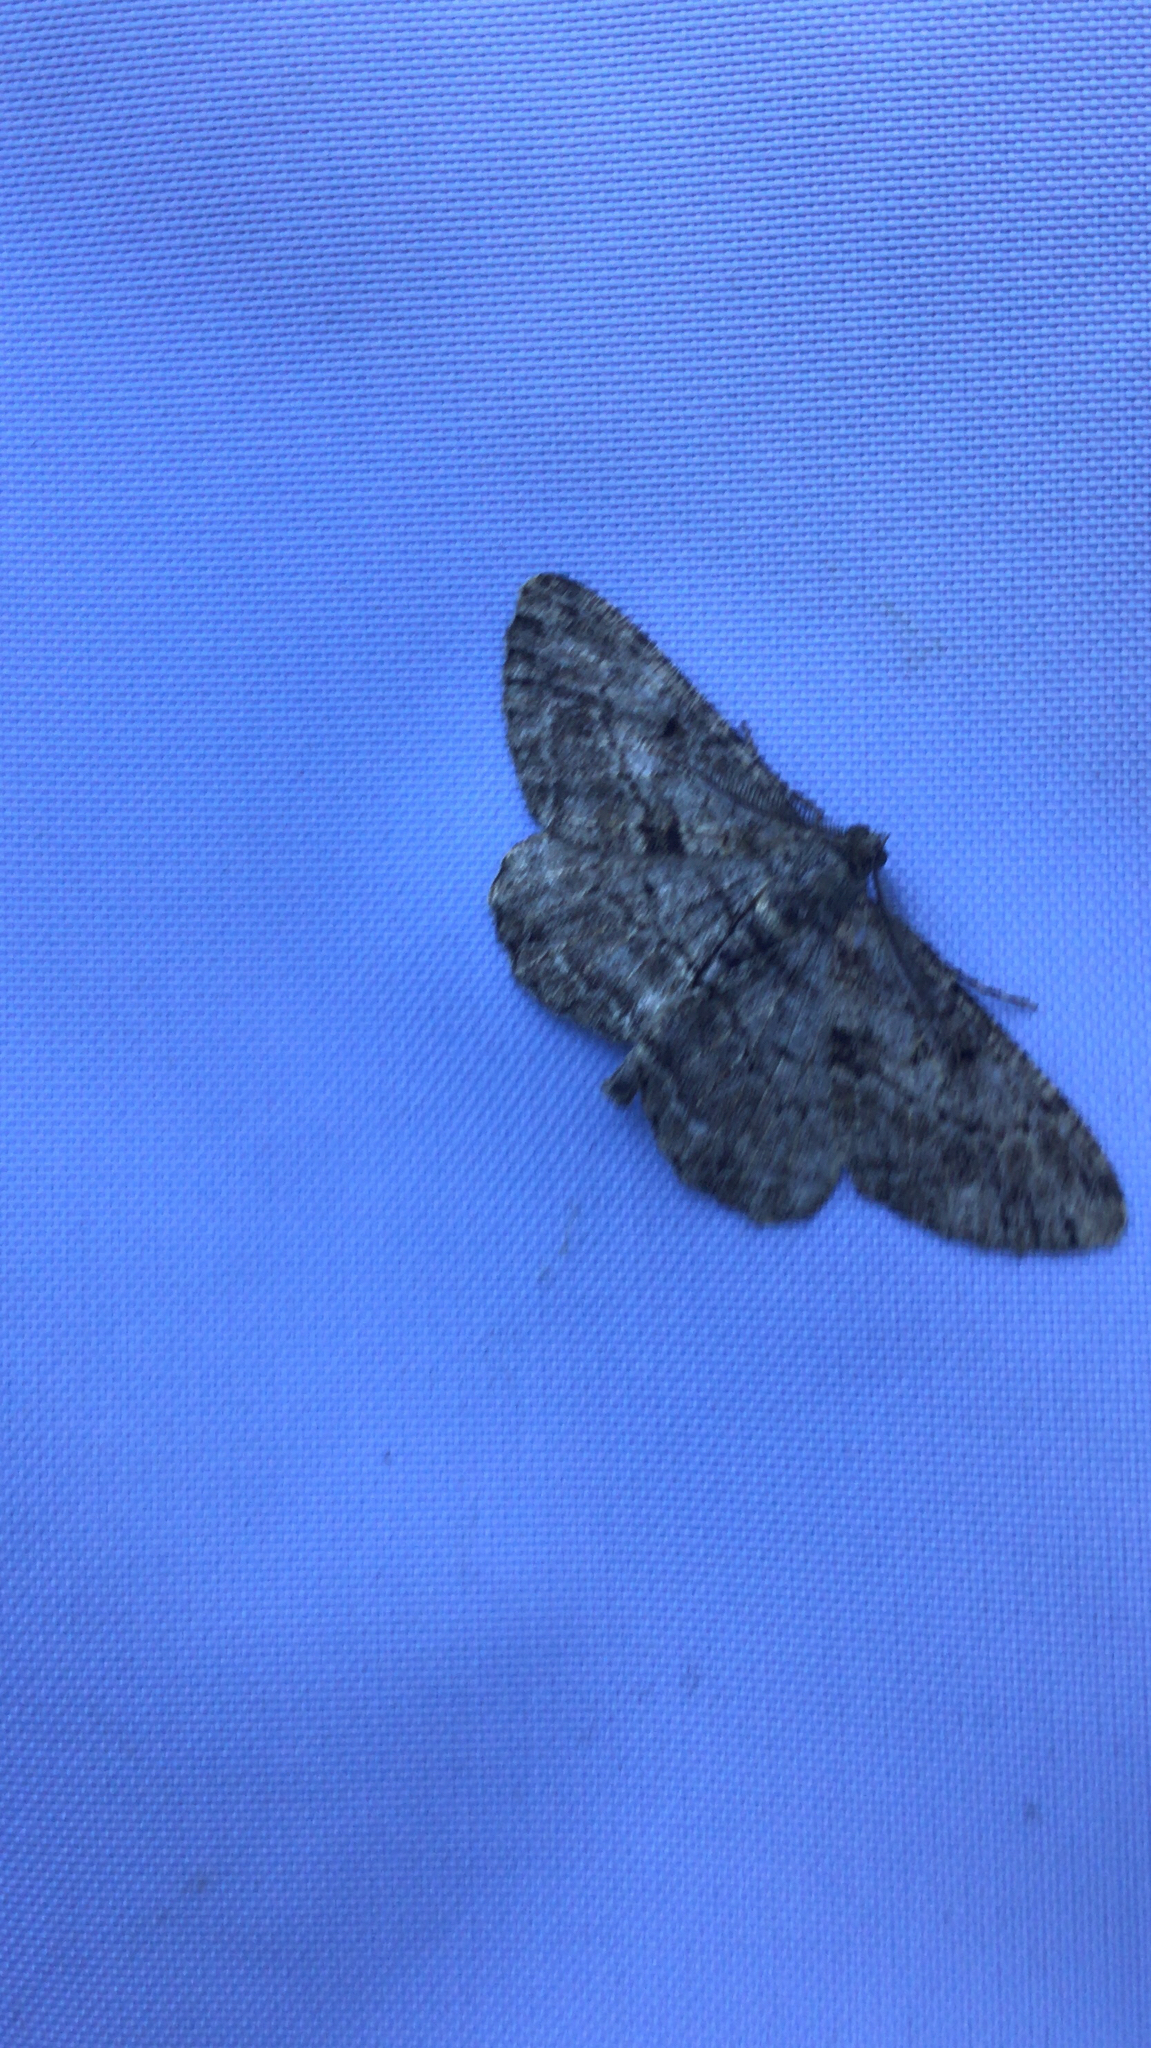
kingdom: Animalia
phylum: Arthropoda
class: Insecta
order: Lepidoptera
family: Geometridae
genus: Peribatodes
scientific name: Peribatodes rhomboidaria
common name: Willow beauty
